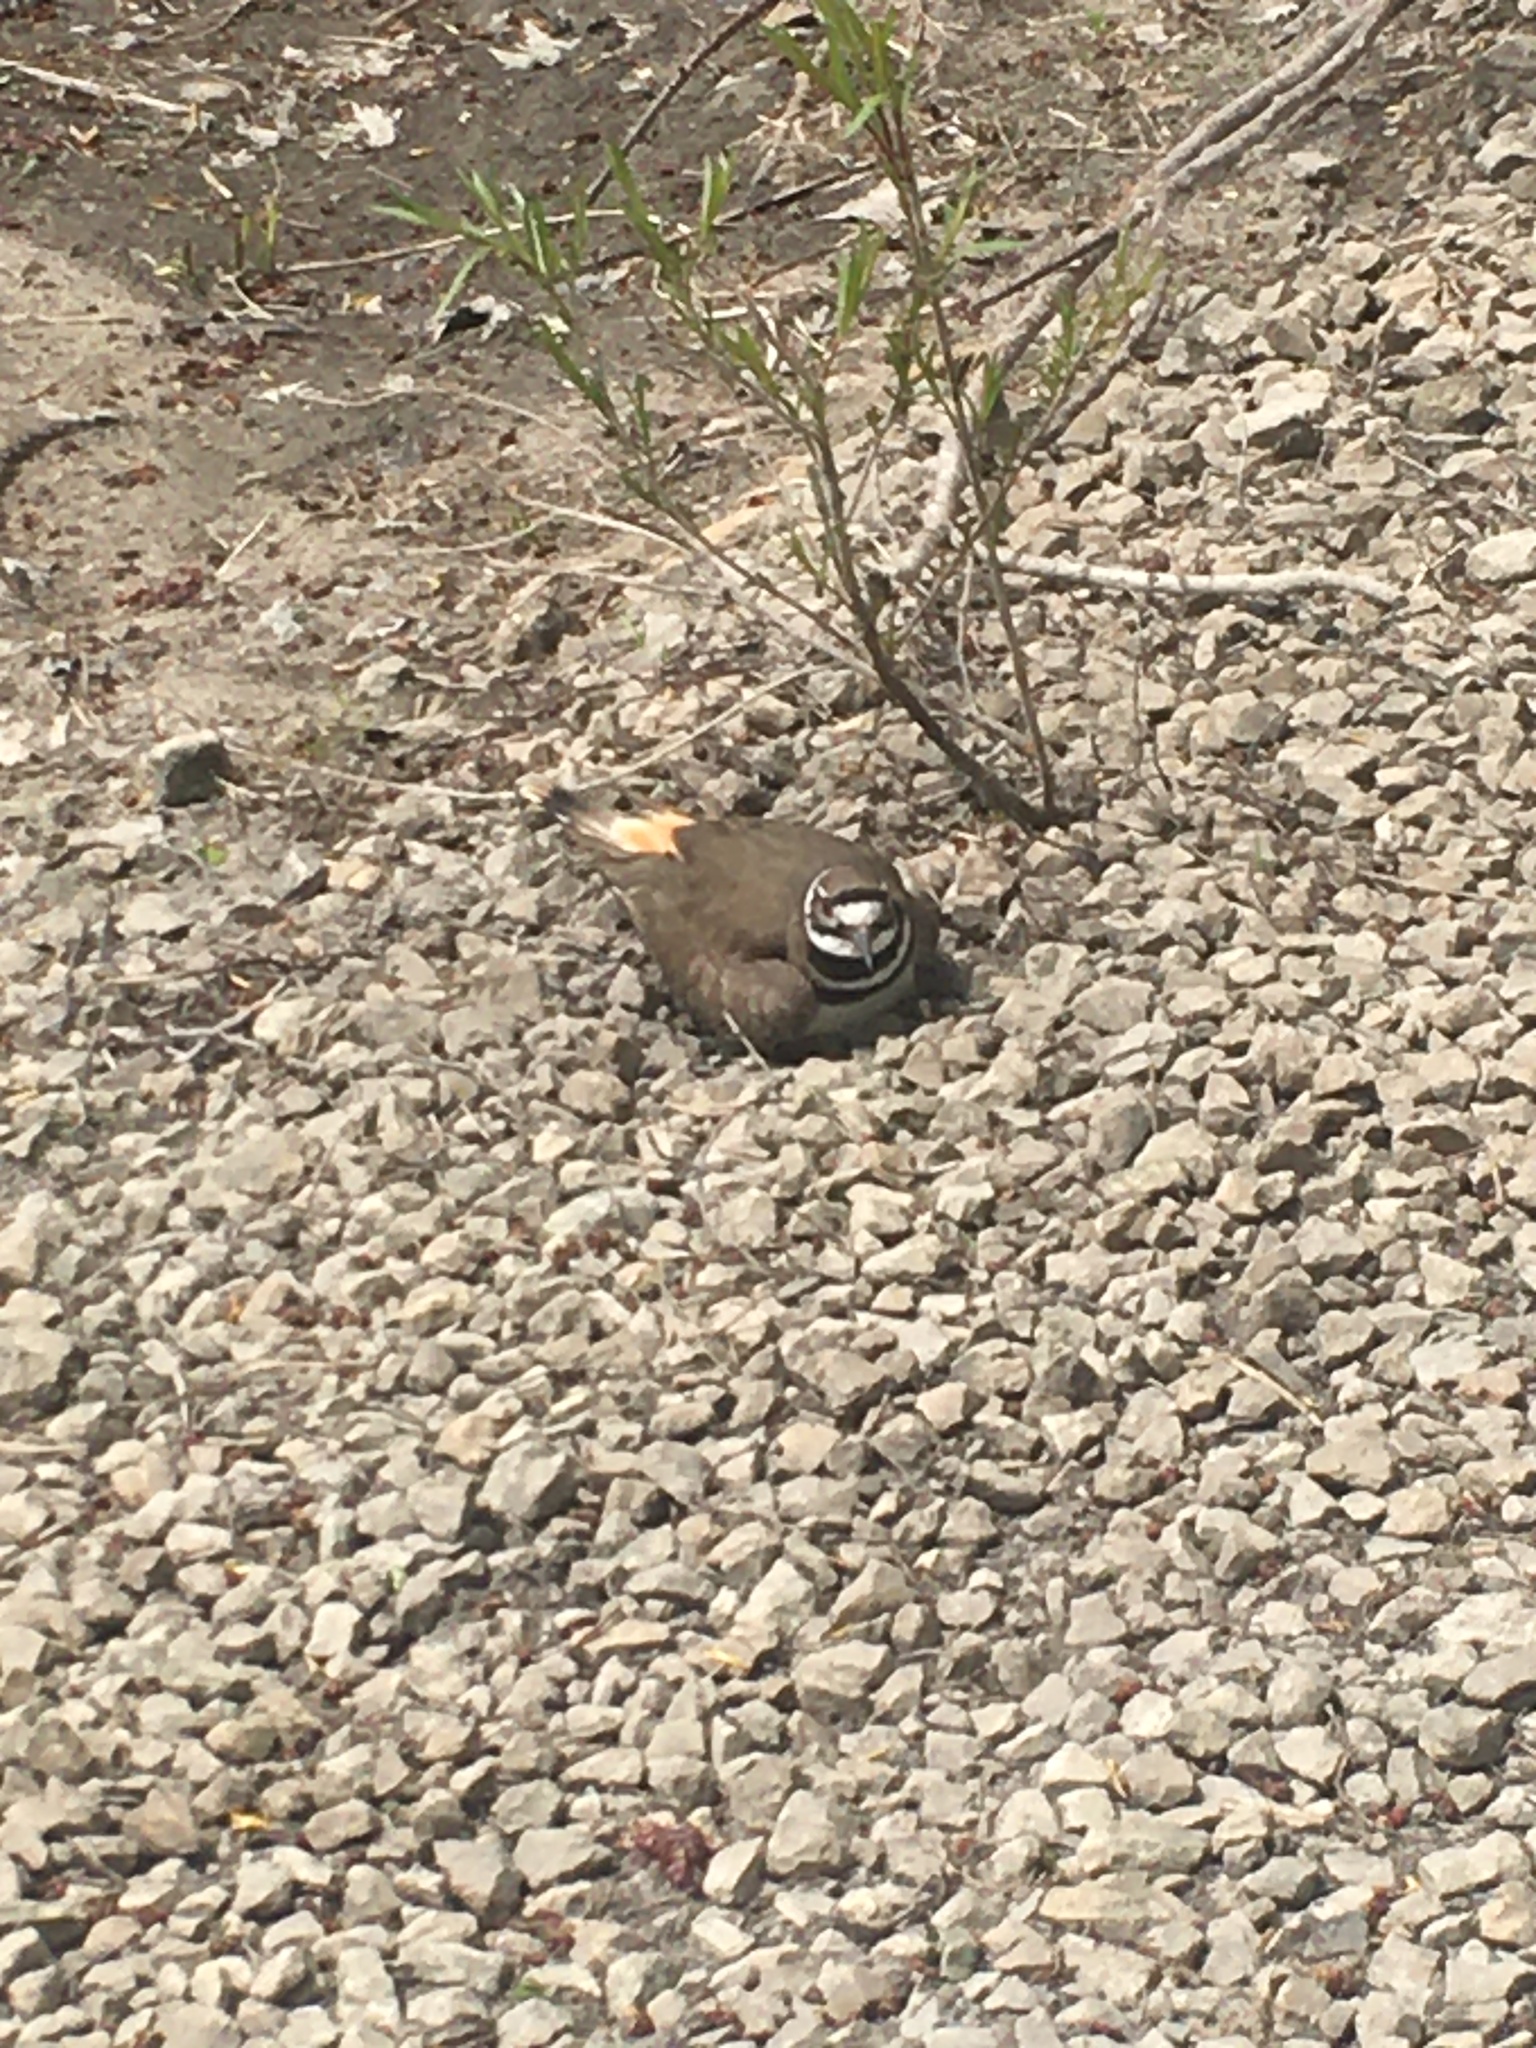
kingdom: Animalia
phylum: Chordata
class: Aves
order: Charadriiformes
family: Charadriidae
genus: Charadrius
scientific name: Charadrius vociferus
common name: Killdeer
